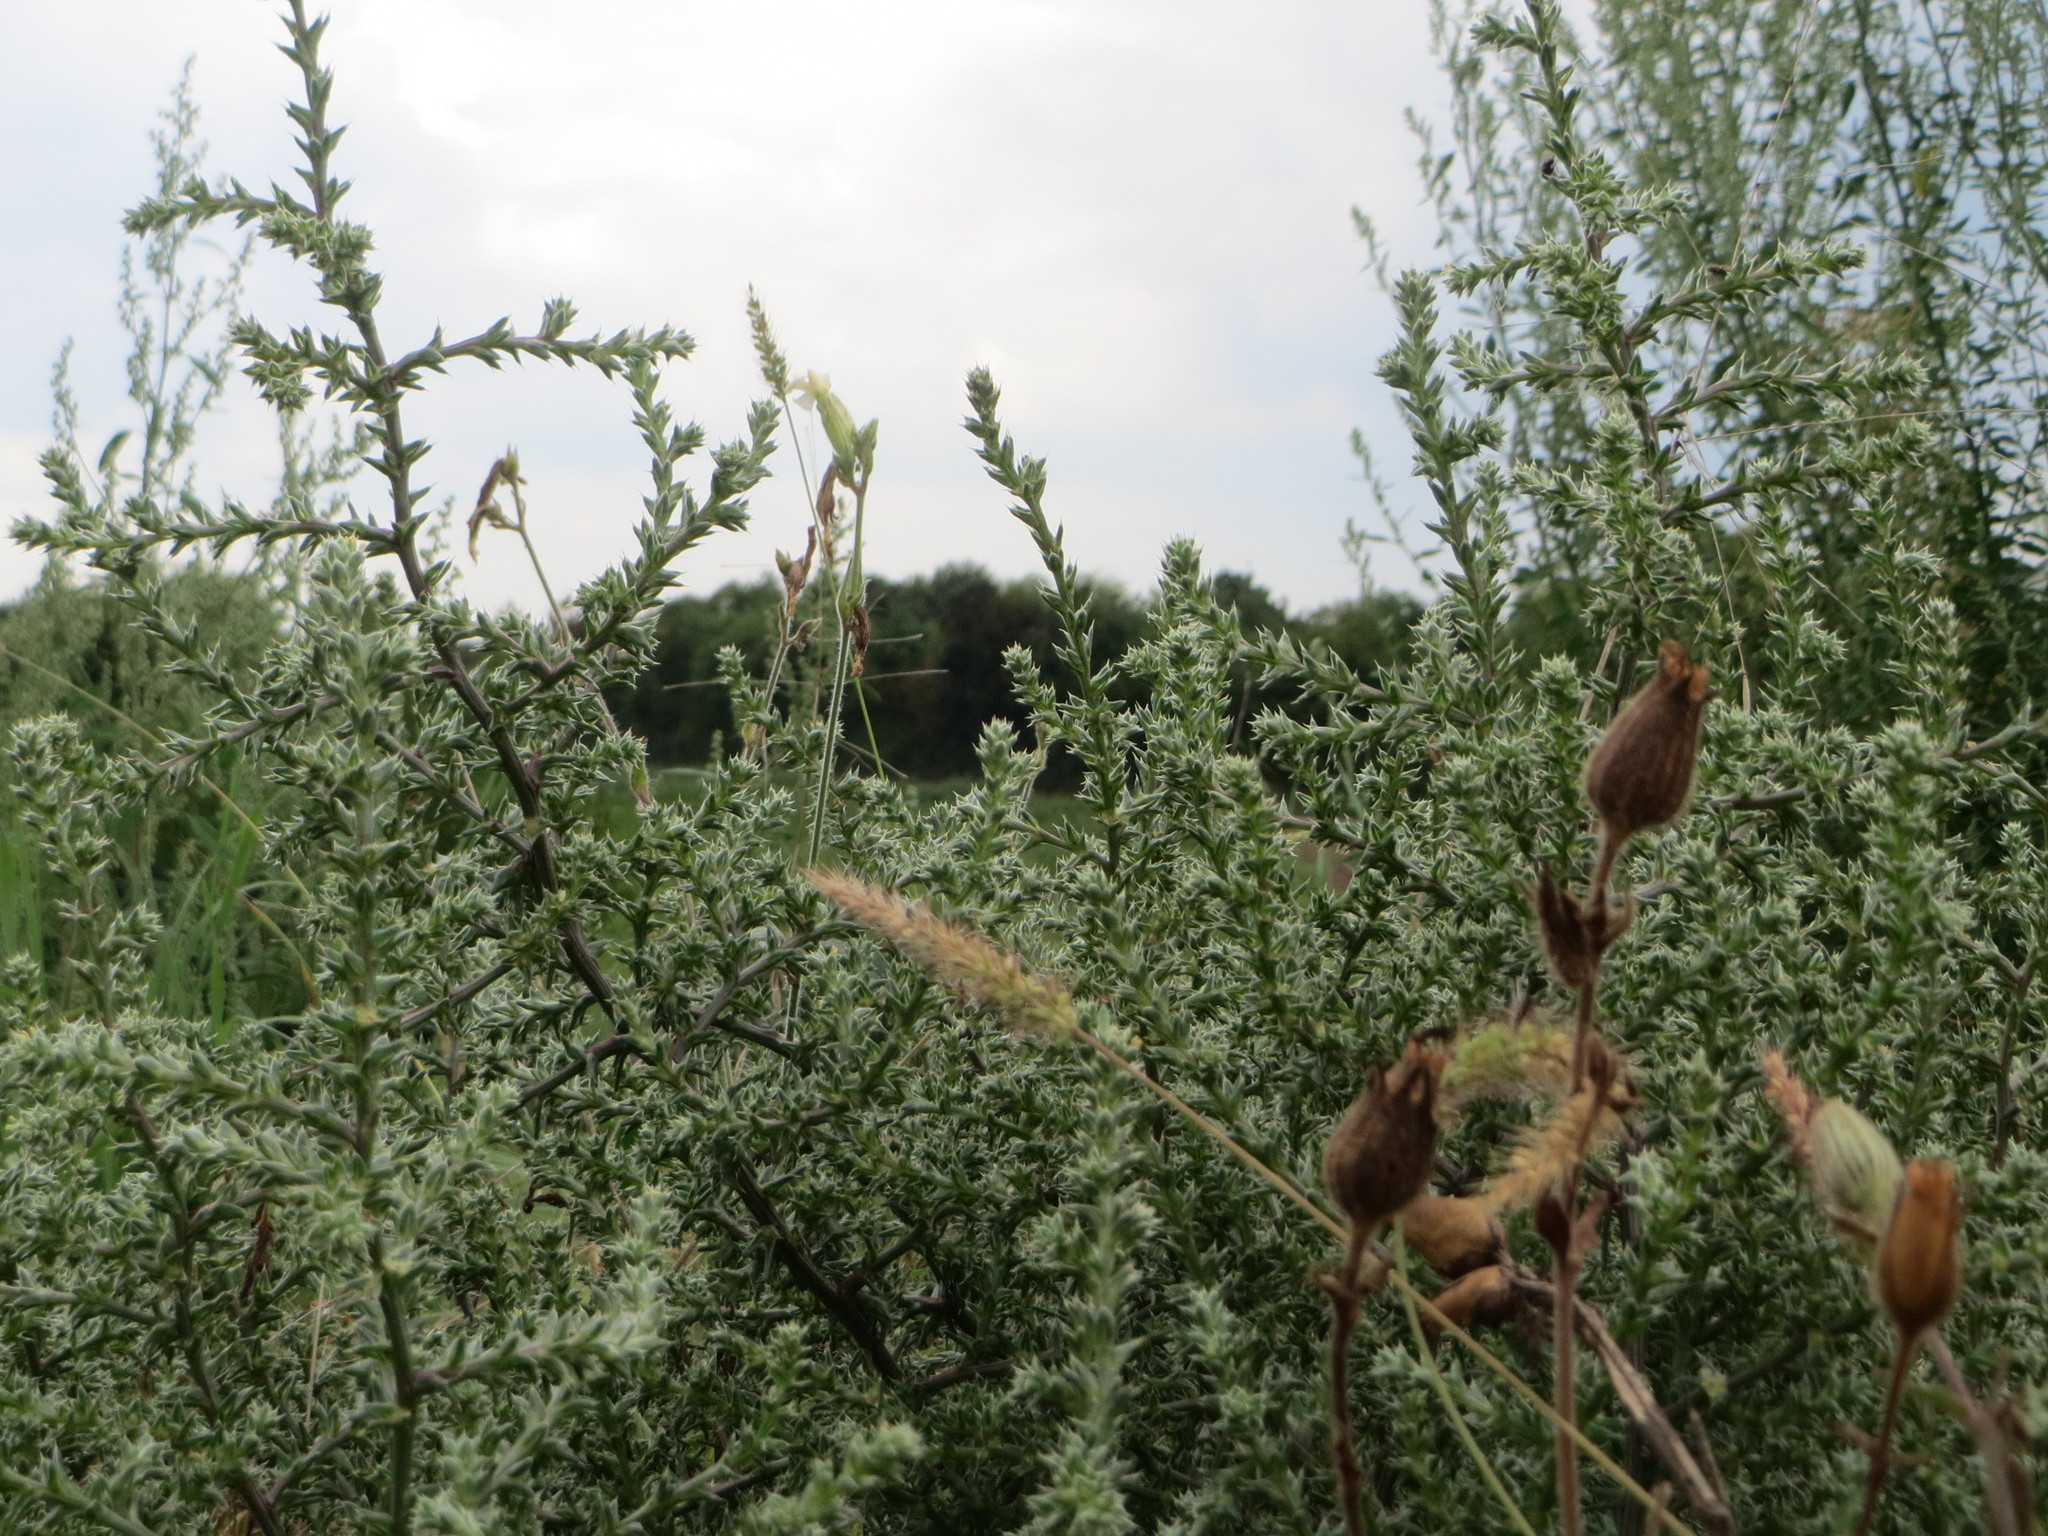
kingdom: Plantae
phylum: Tracheophyta
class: Magnoliopsida
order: Caryophyllales
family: Amaranthaceae
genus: Salsola
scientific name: Salsola tragus
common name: Prickly russian thistle
